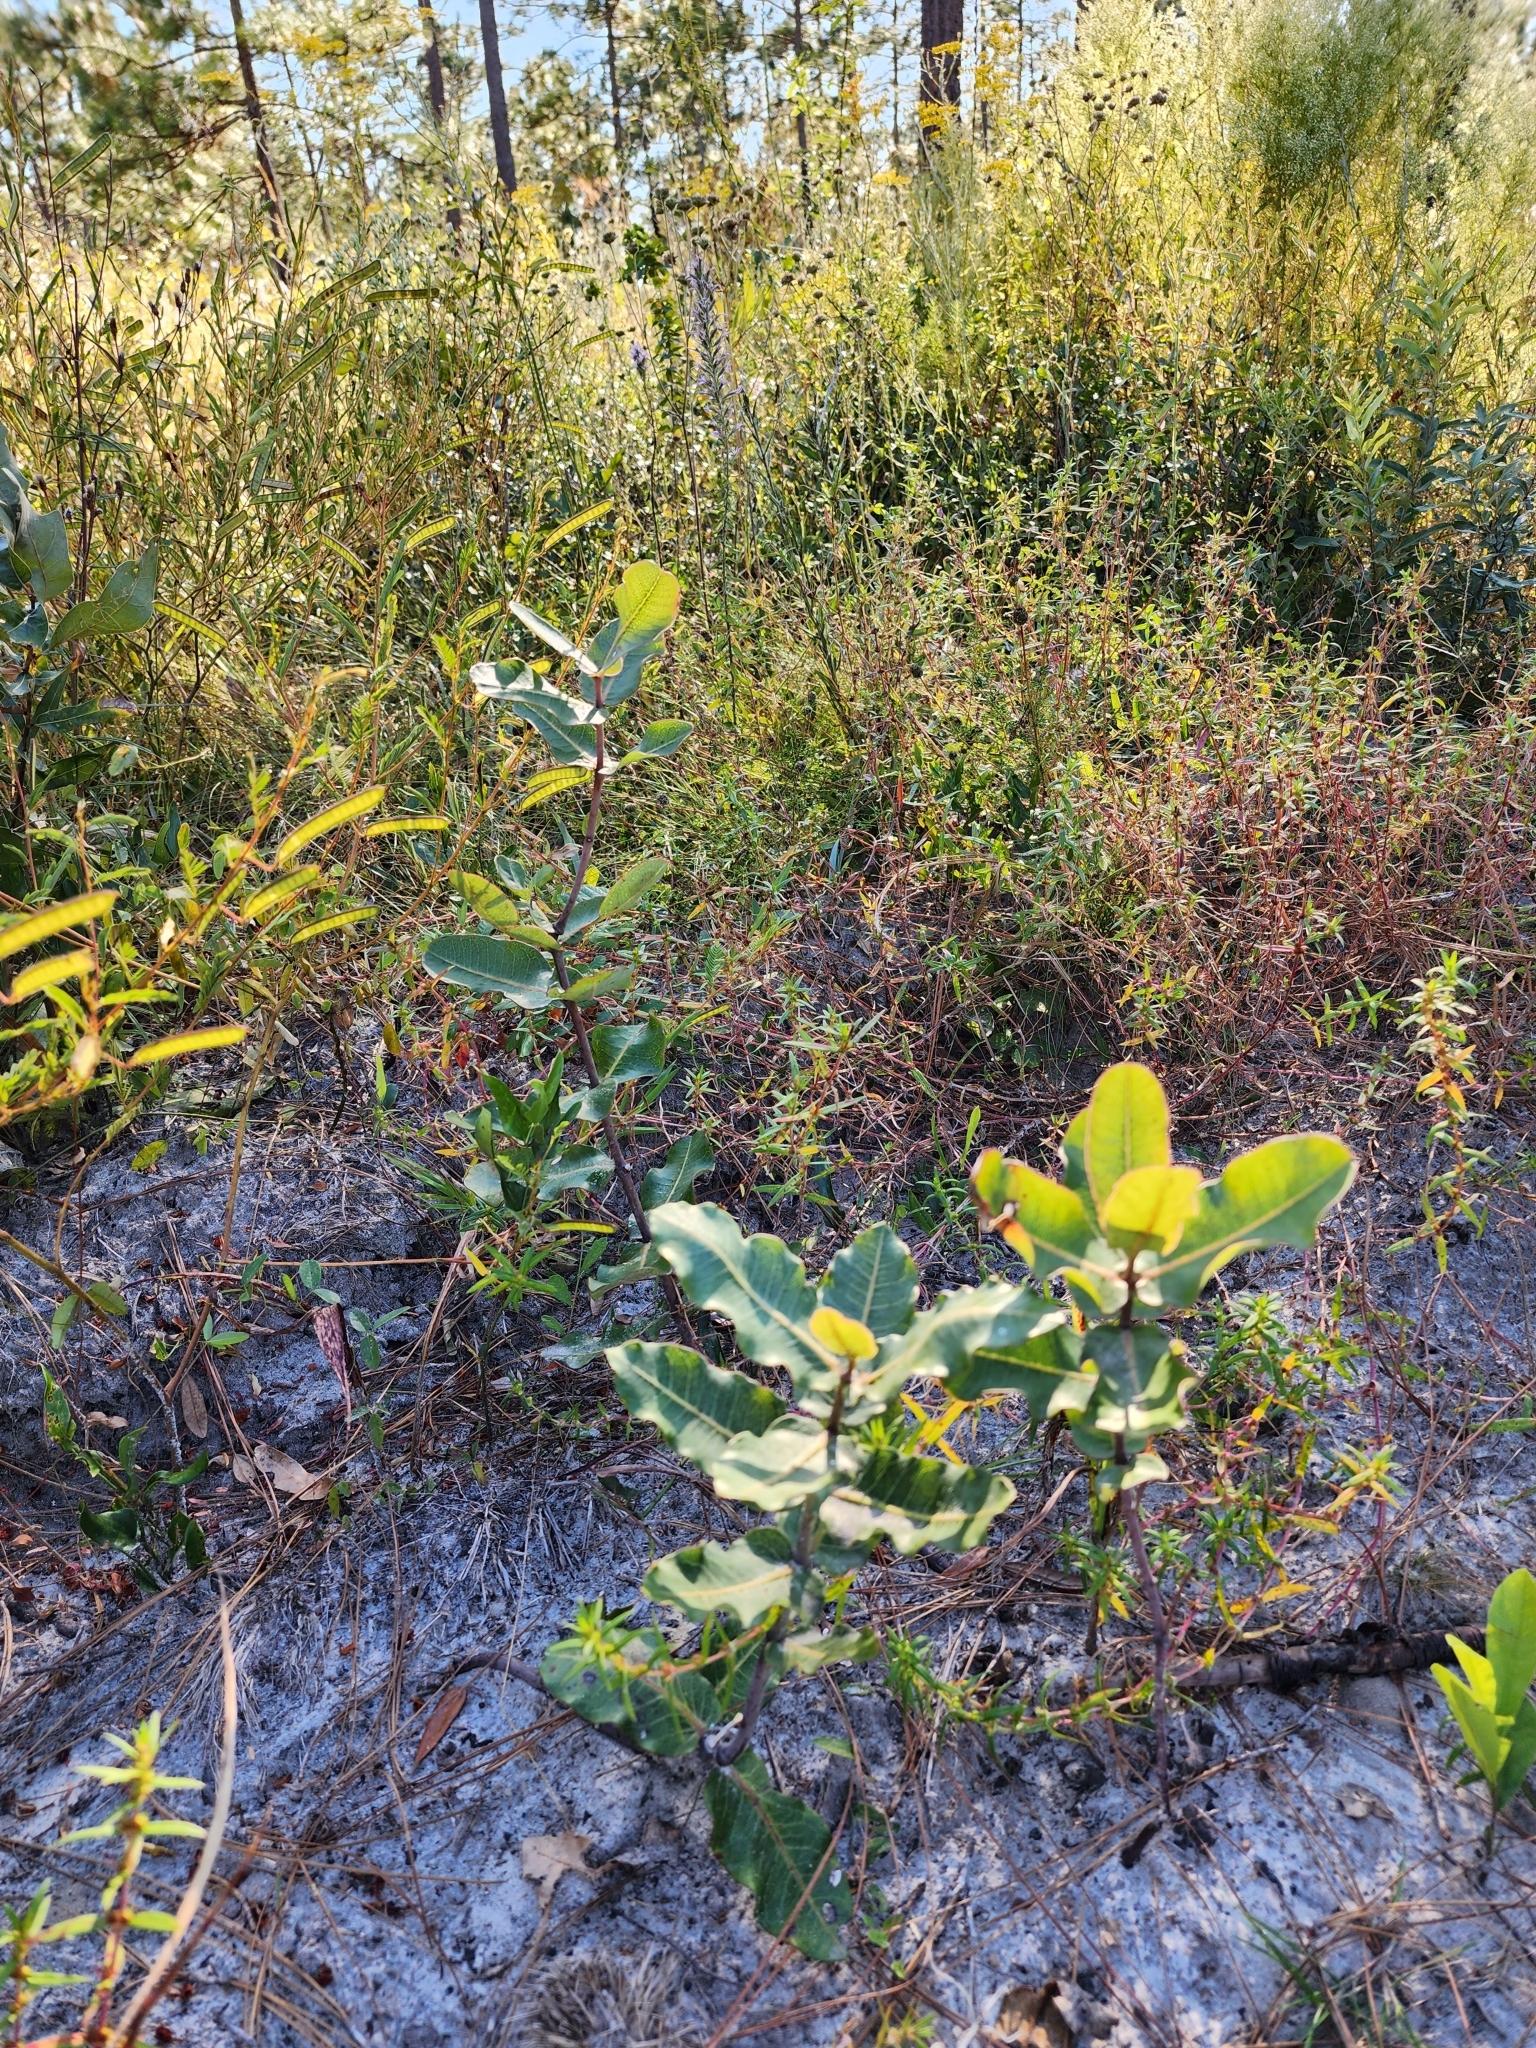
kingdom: Plantae
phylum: Tracheophyta
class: Magnoliopsida
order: Gentianales
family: Apocynaceae
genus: Asclepias
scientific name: Asclepias amplexicaulis
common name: Blunt-leaf milkweed
